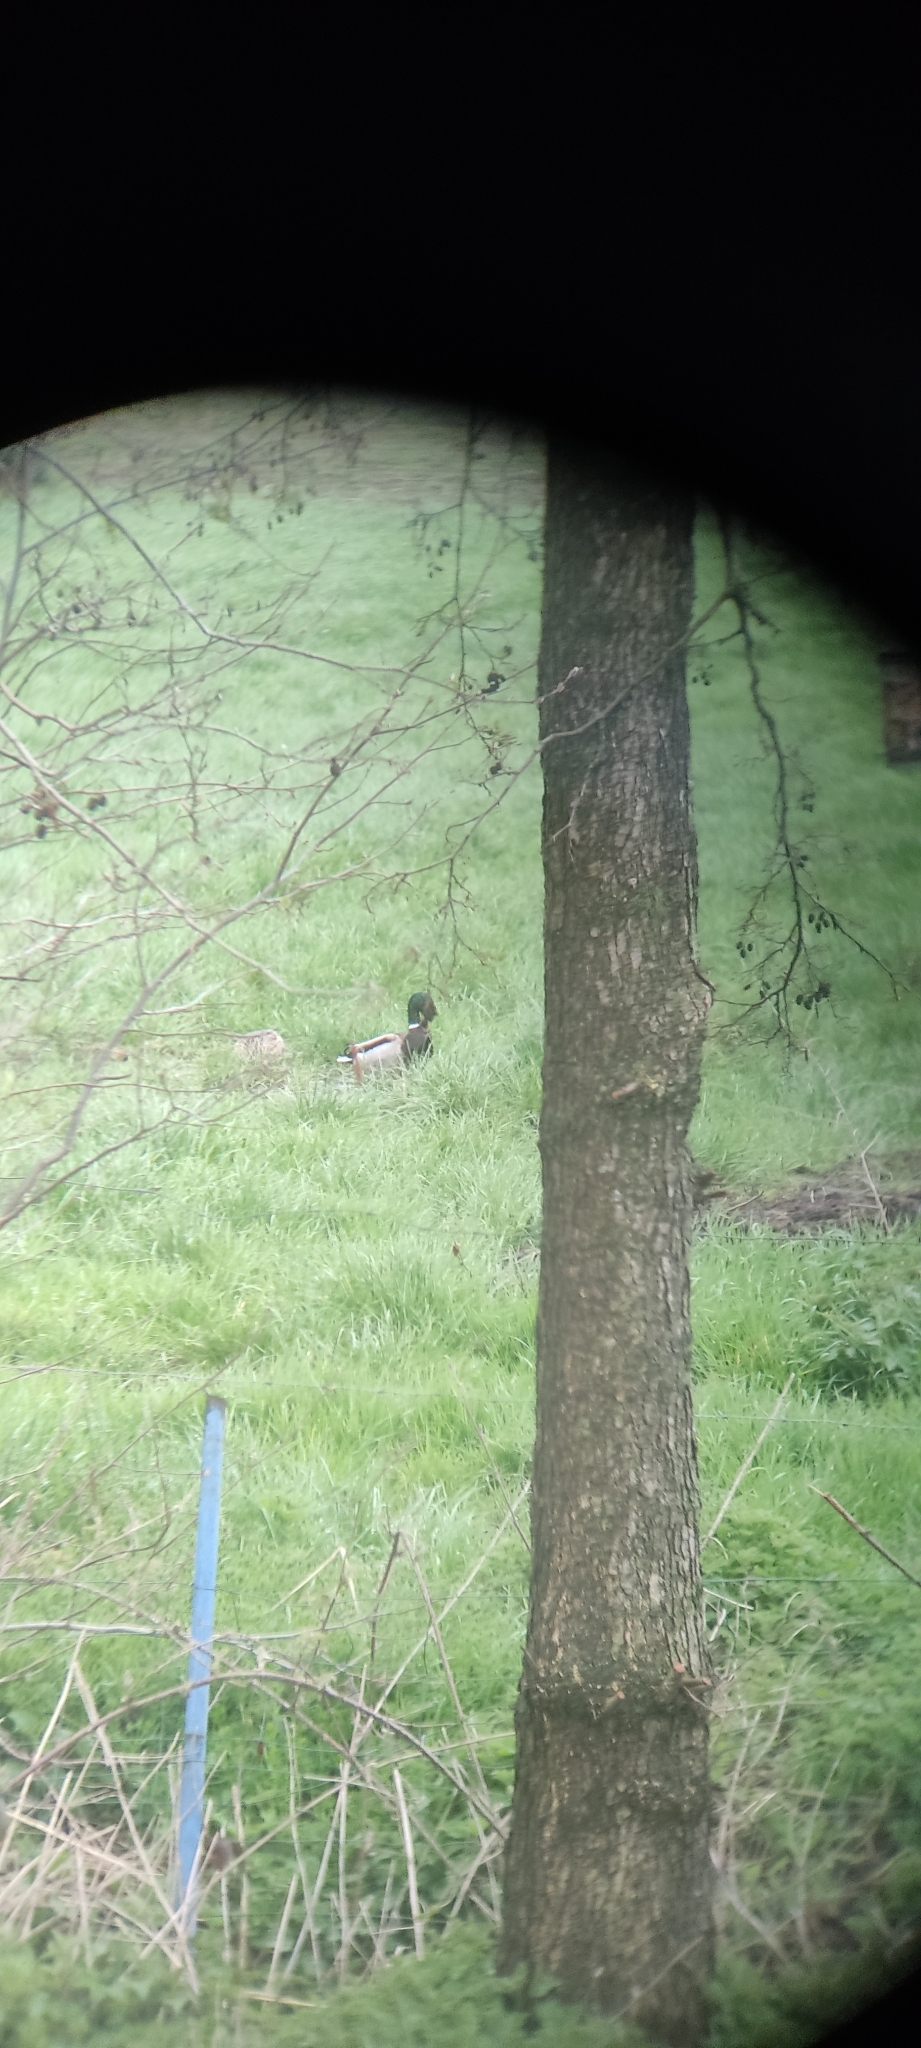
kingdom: Animalia
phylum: Chordata
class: Aves
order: Anseriformes
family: Anatidae
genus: Anas
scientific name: Anas platyrhynchos
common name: Mallard
